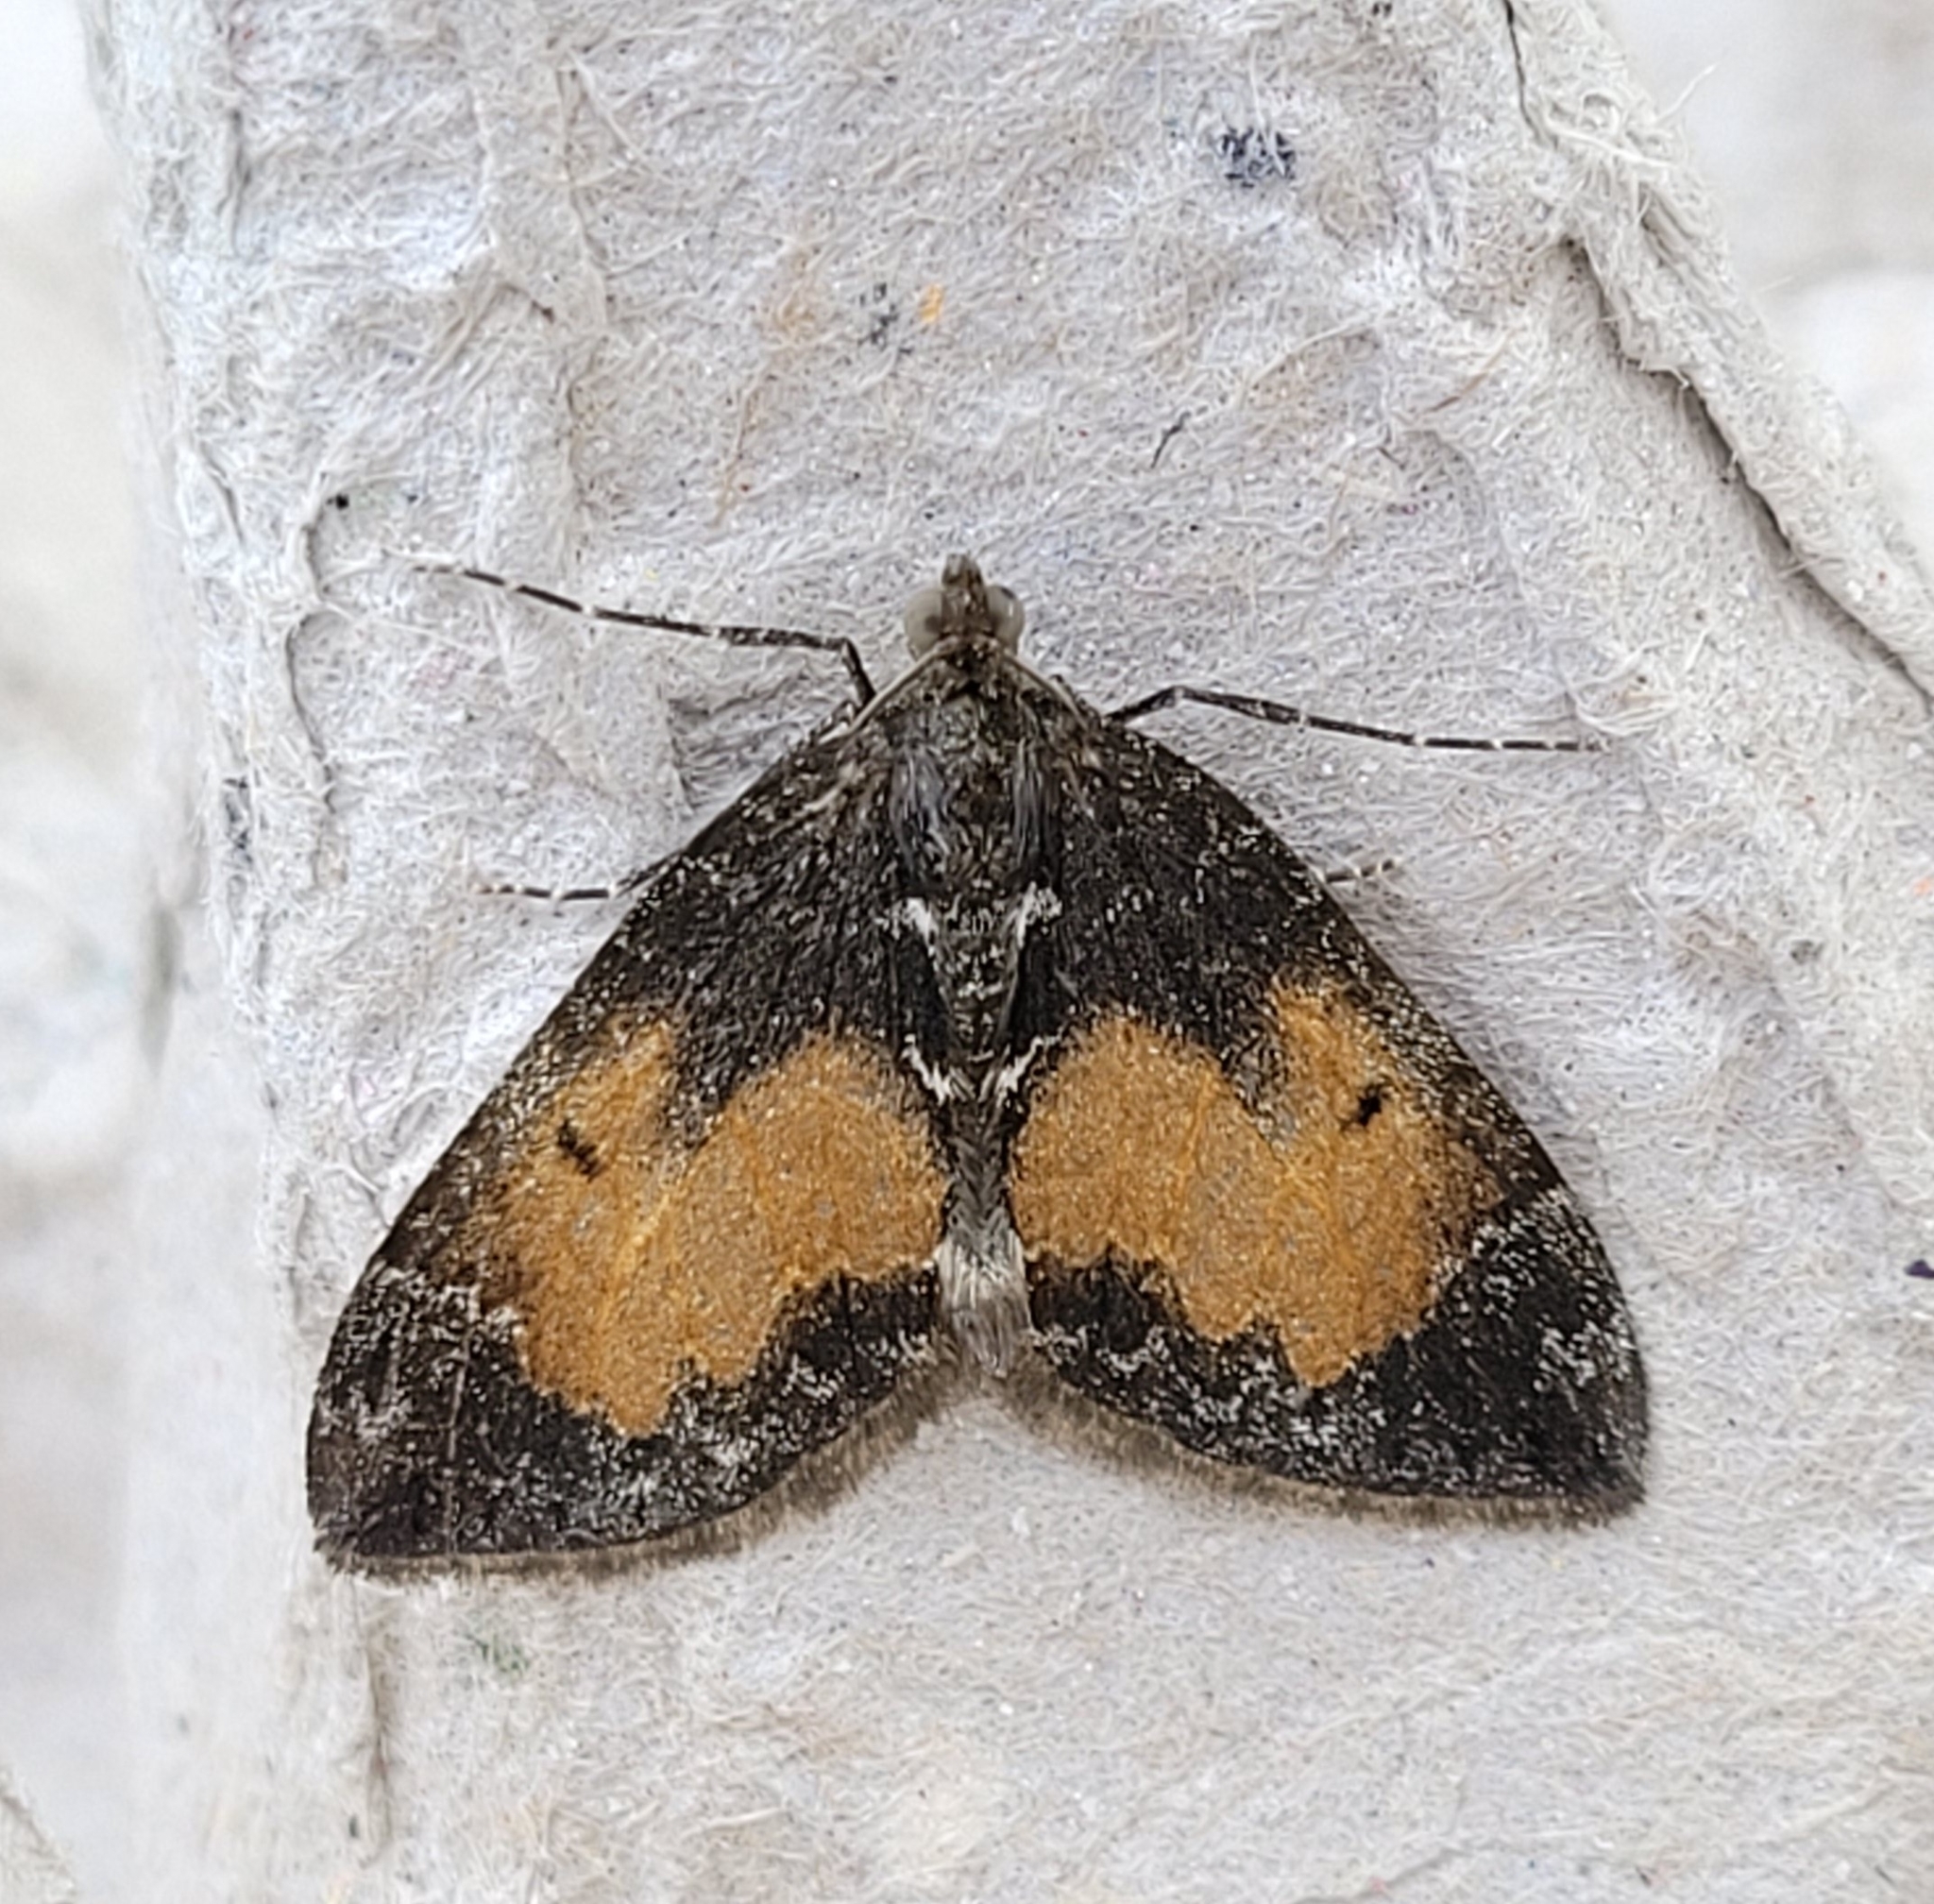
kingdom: Animalia
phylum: Arthropoda
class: Insecta
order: Lepidoptera
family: Geometridae
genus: Dysstroma
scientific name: Dysstroma truncata
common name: Common marbled carpet
